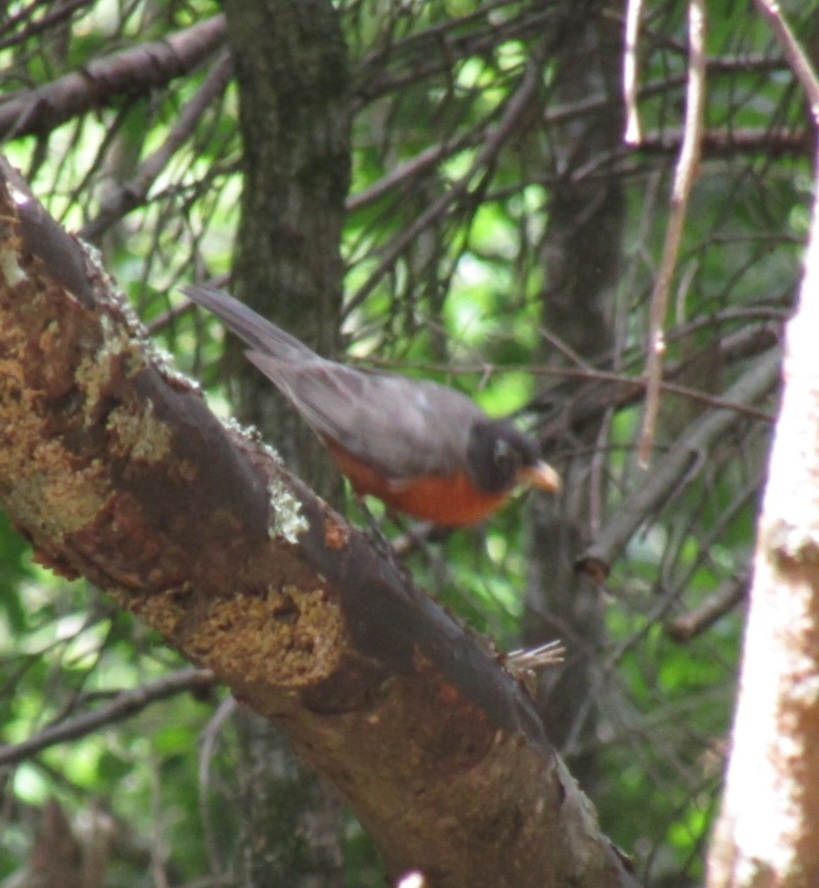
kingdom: Animalia
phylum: Chordata
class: Aves
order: Passeriformes
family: Turdidae
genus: Turdus
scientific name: Turdus migratorius
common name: American robin
